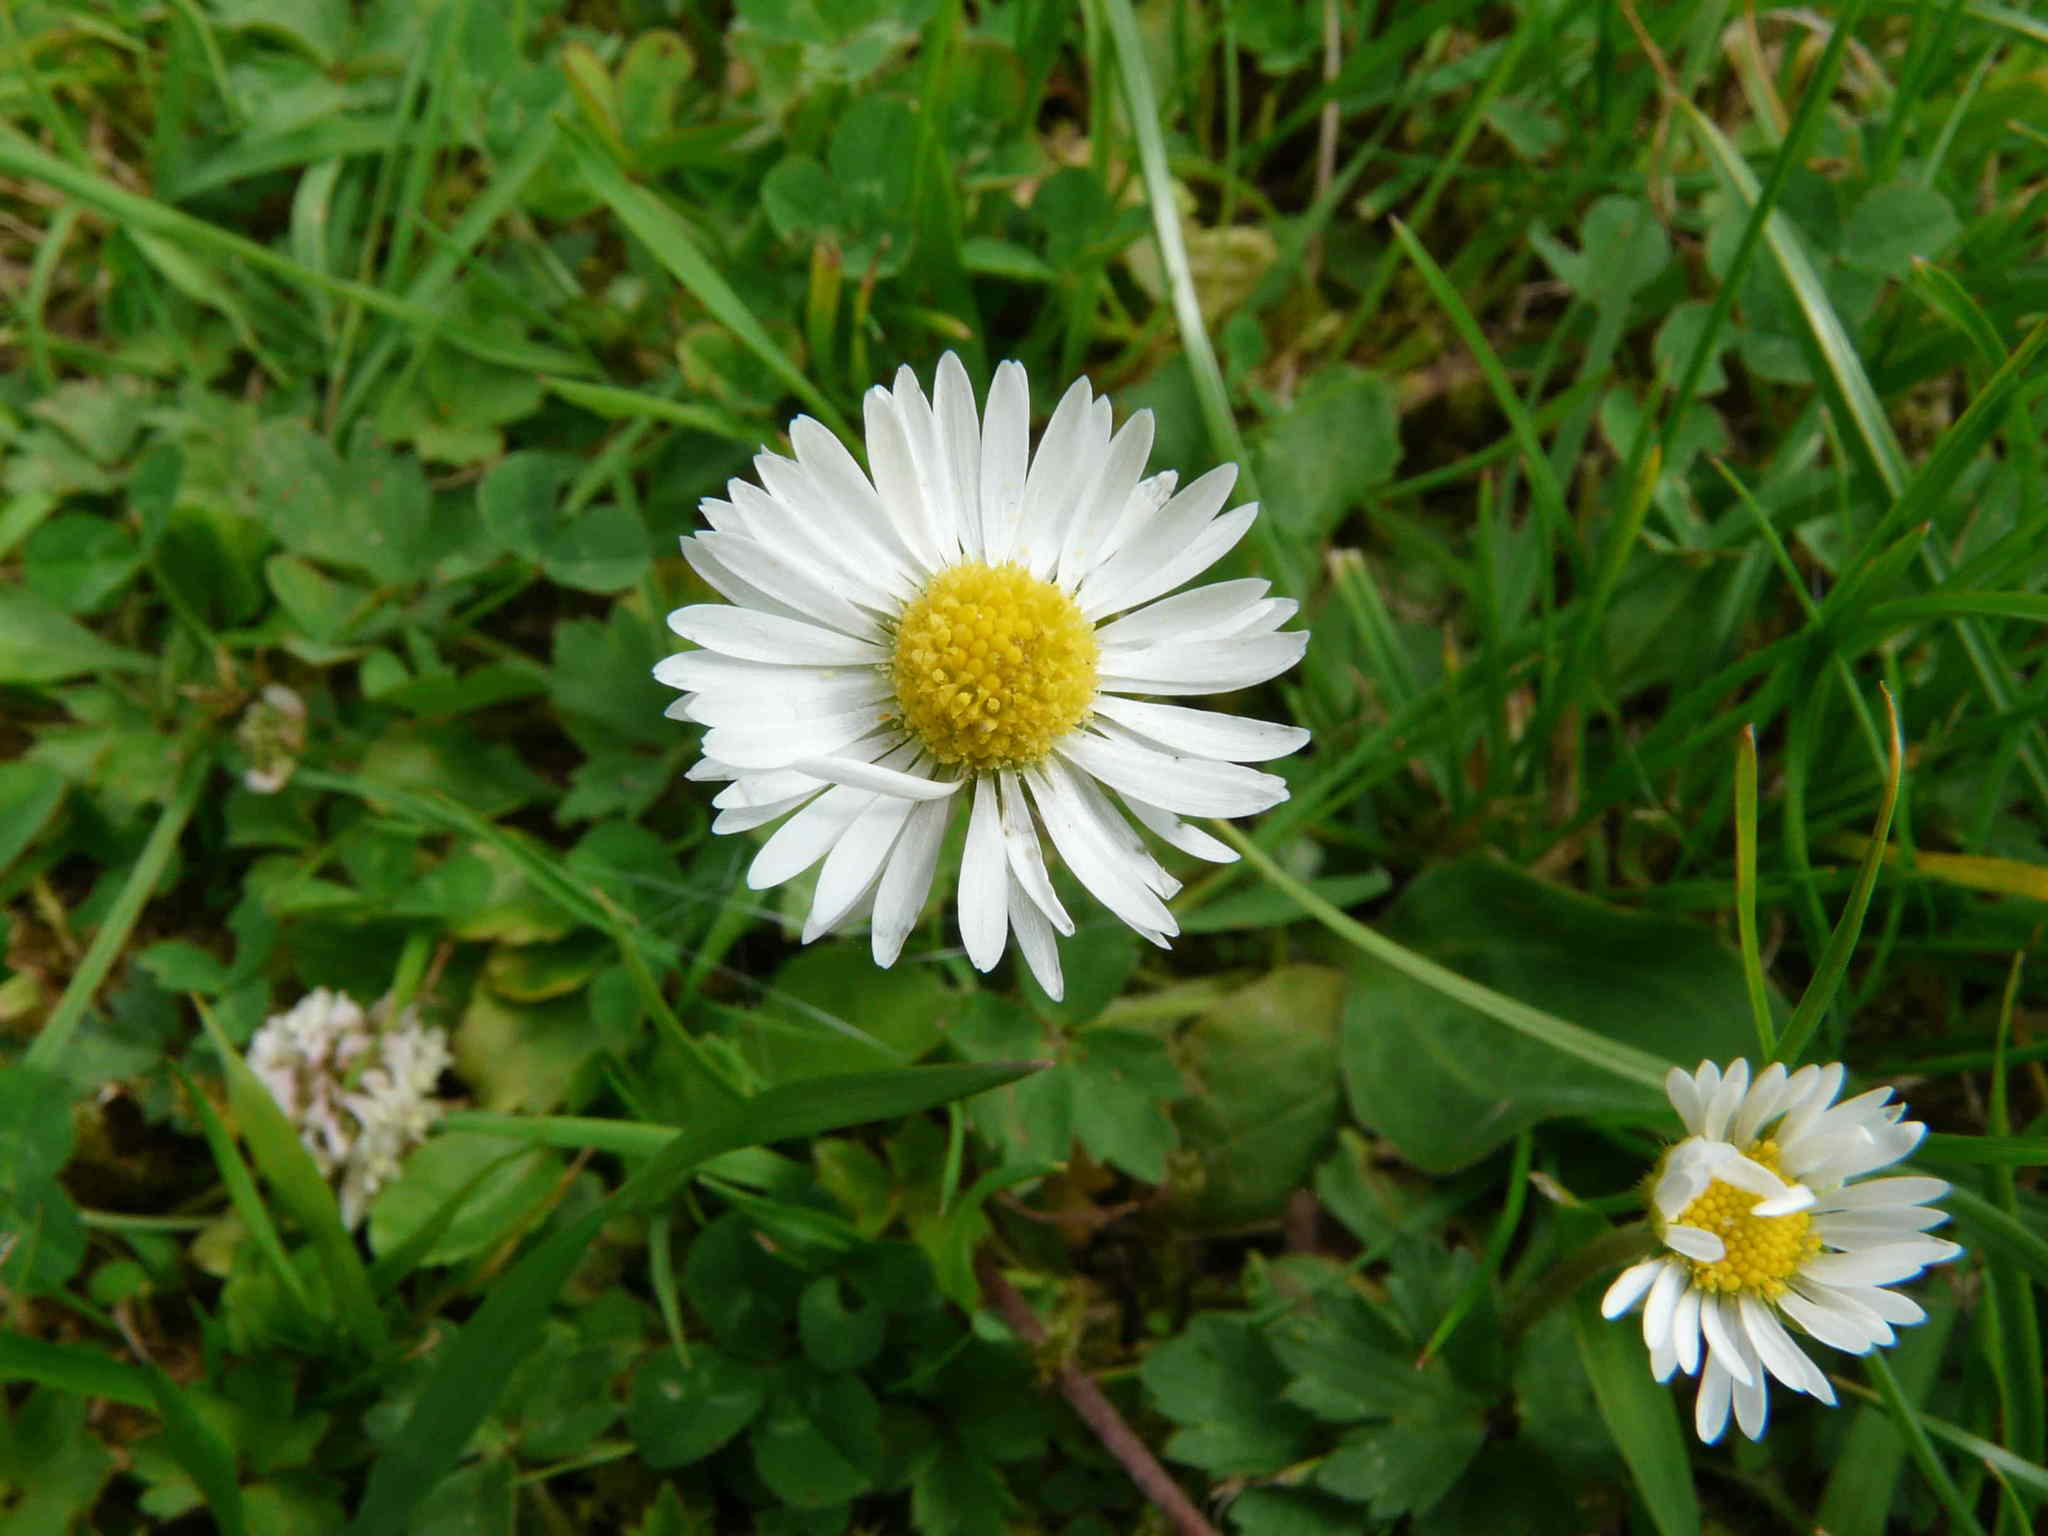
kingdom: Plantae
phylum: Tracheophyta
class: Magnoliopsida
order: Asterales
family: Asteraceae
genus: Bellis
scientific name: Bellis perennis
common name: Lawndaisy
